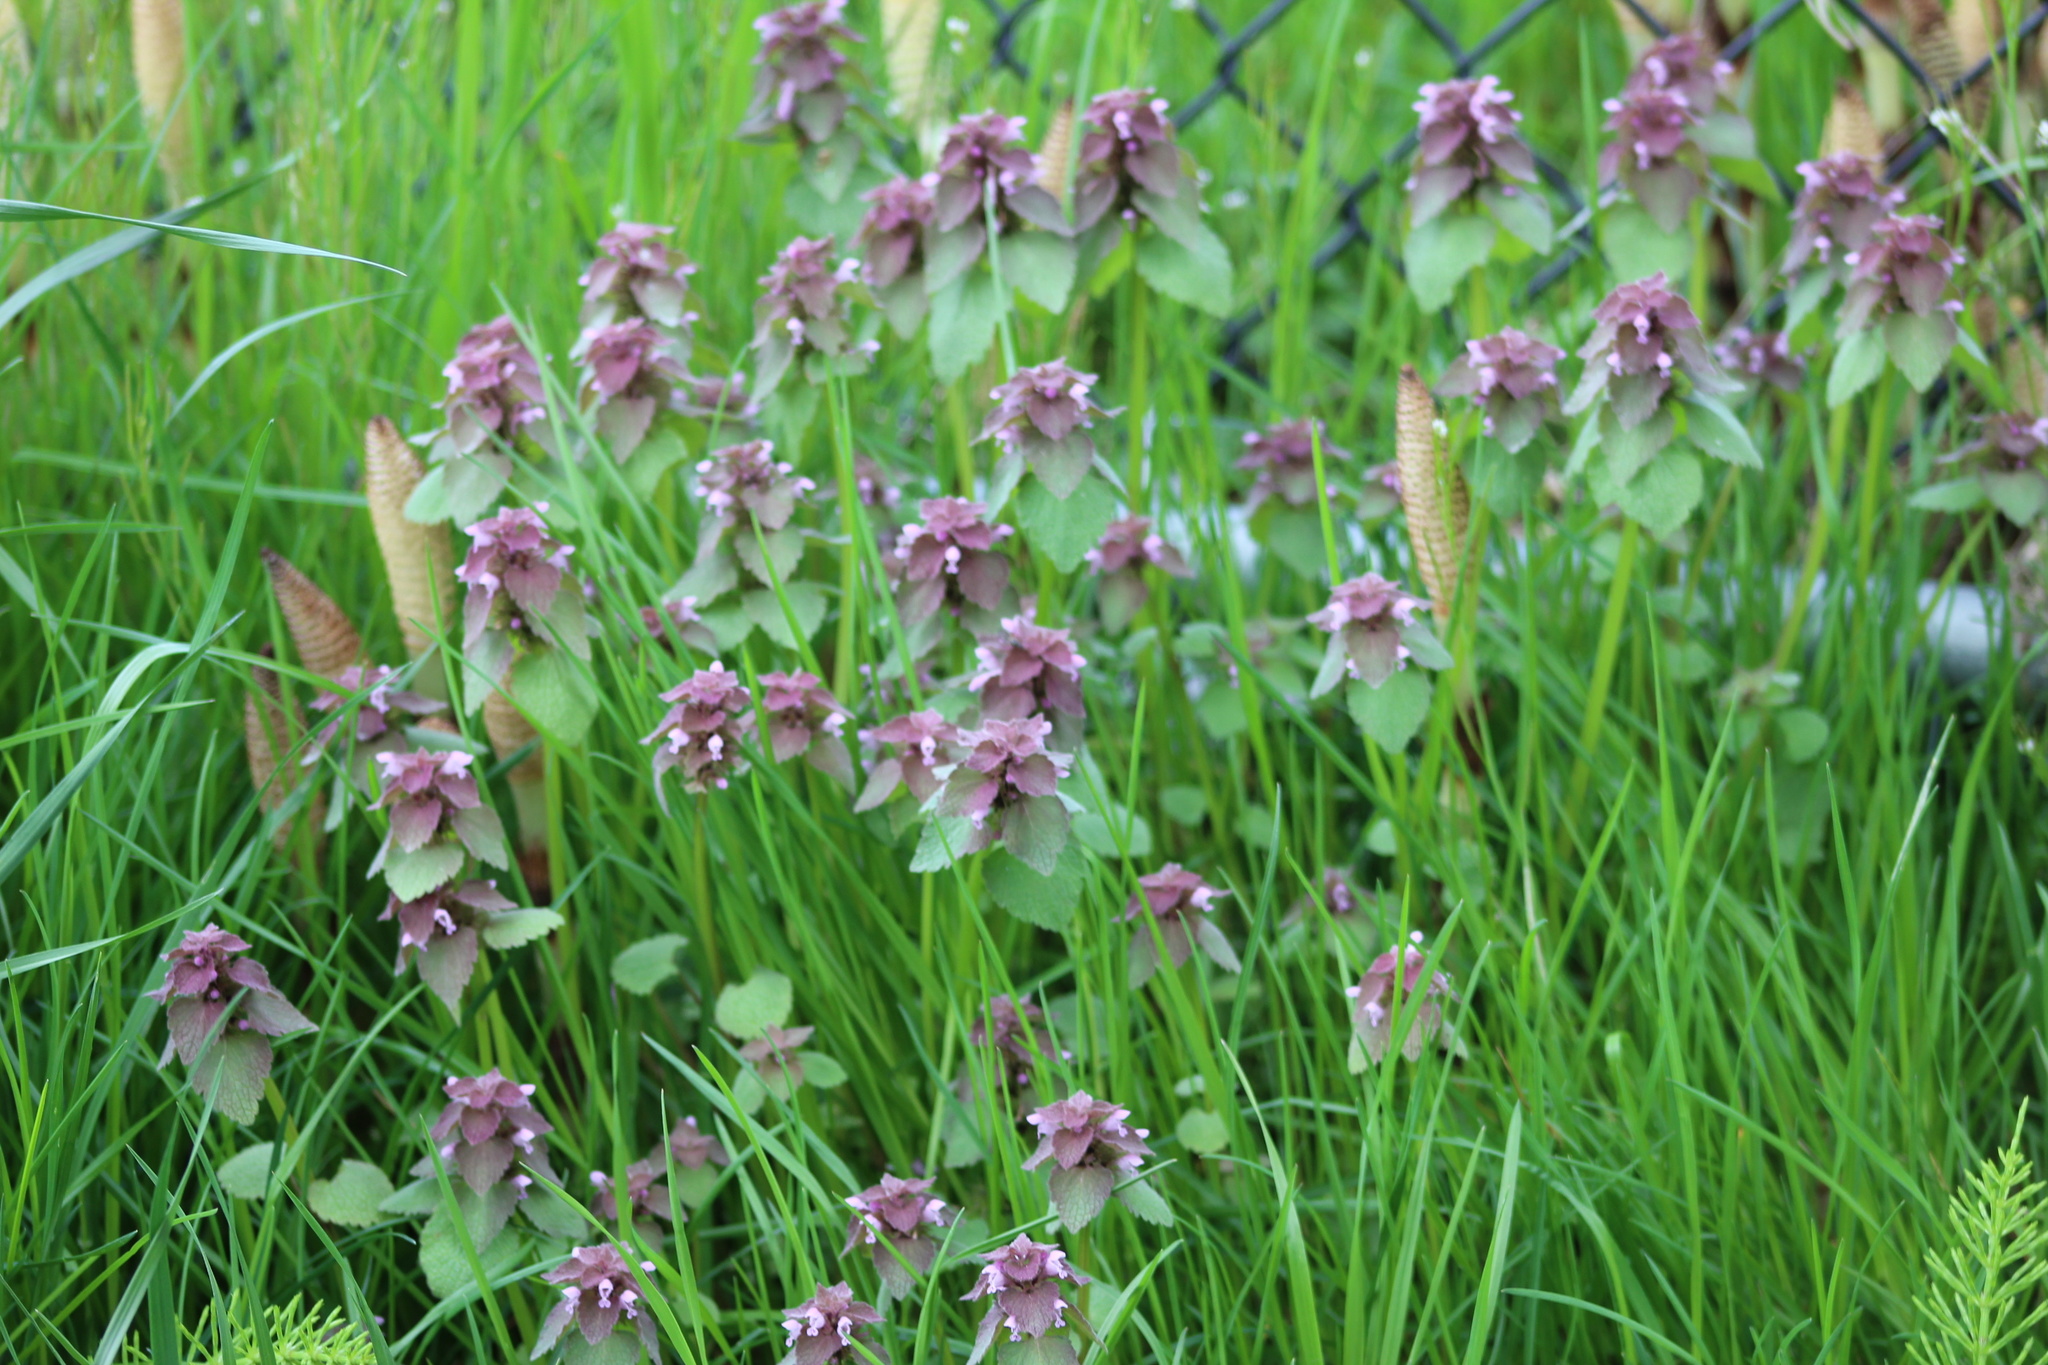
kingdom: Plantae
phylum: Tracheophyta
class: Magnoliopsida
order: Lamiales
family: Lamiaceae
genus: Lamium
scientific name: Lamium purpureum
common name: Red dead-nettle
